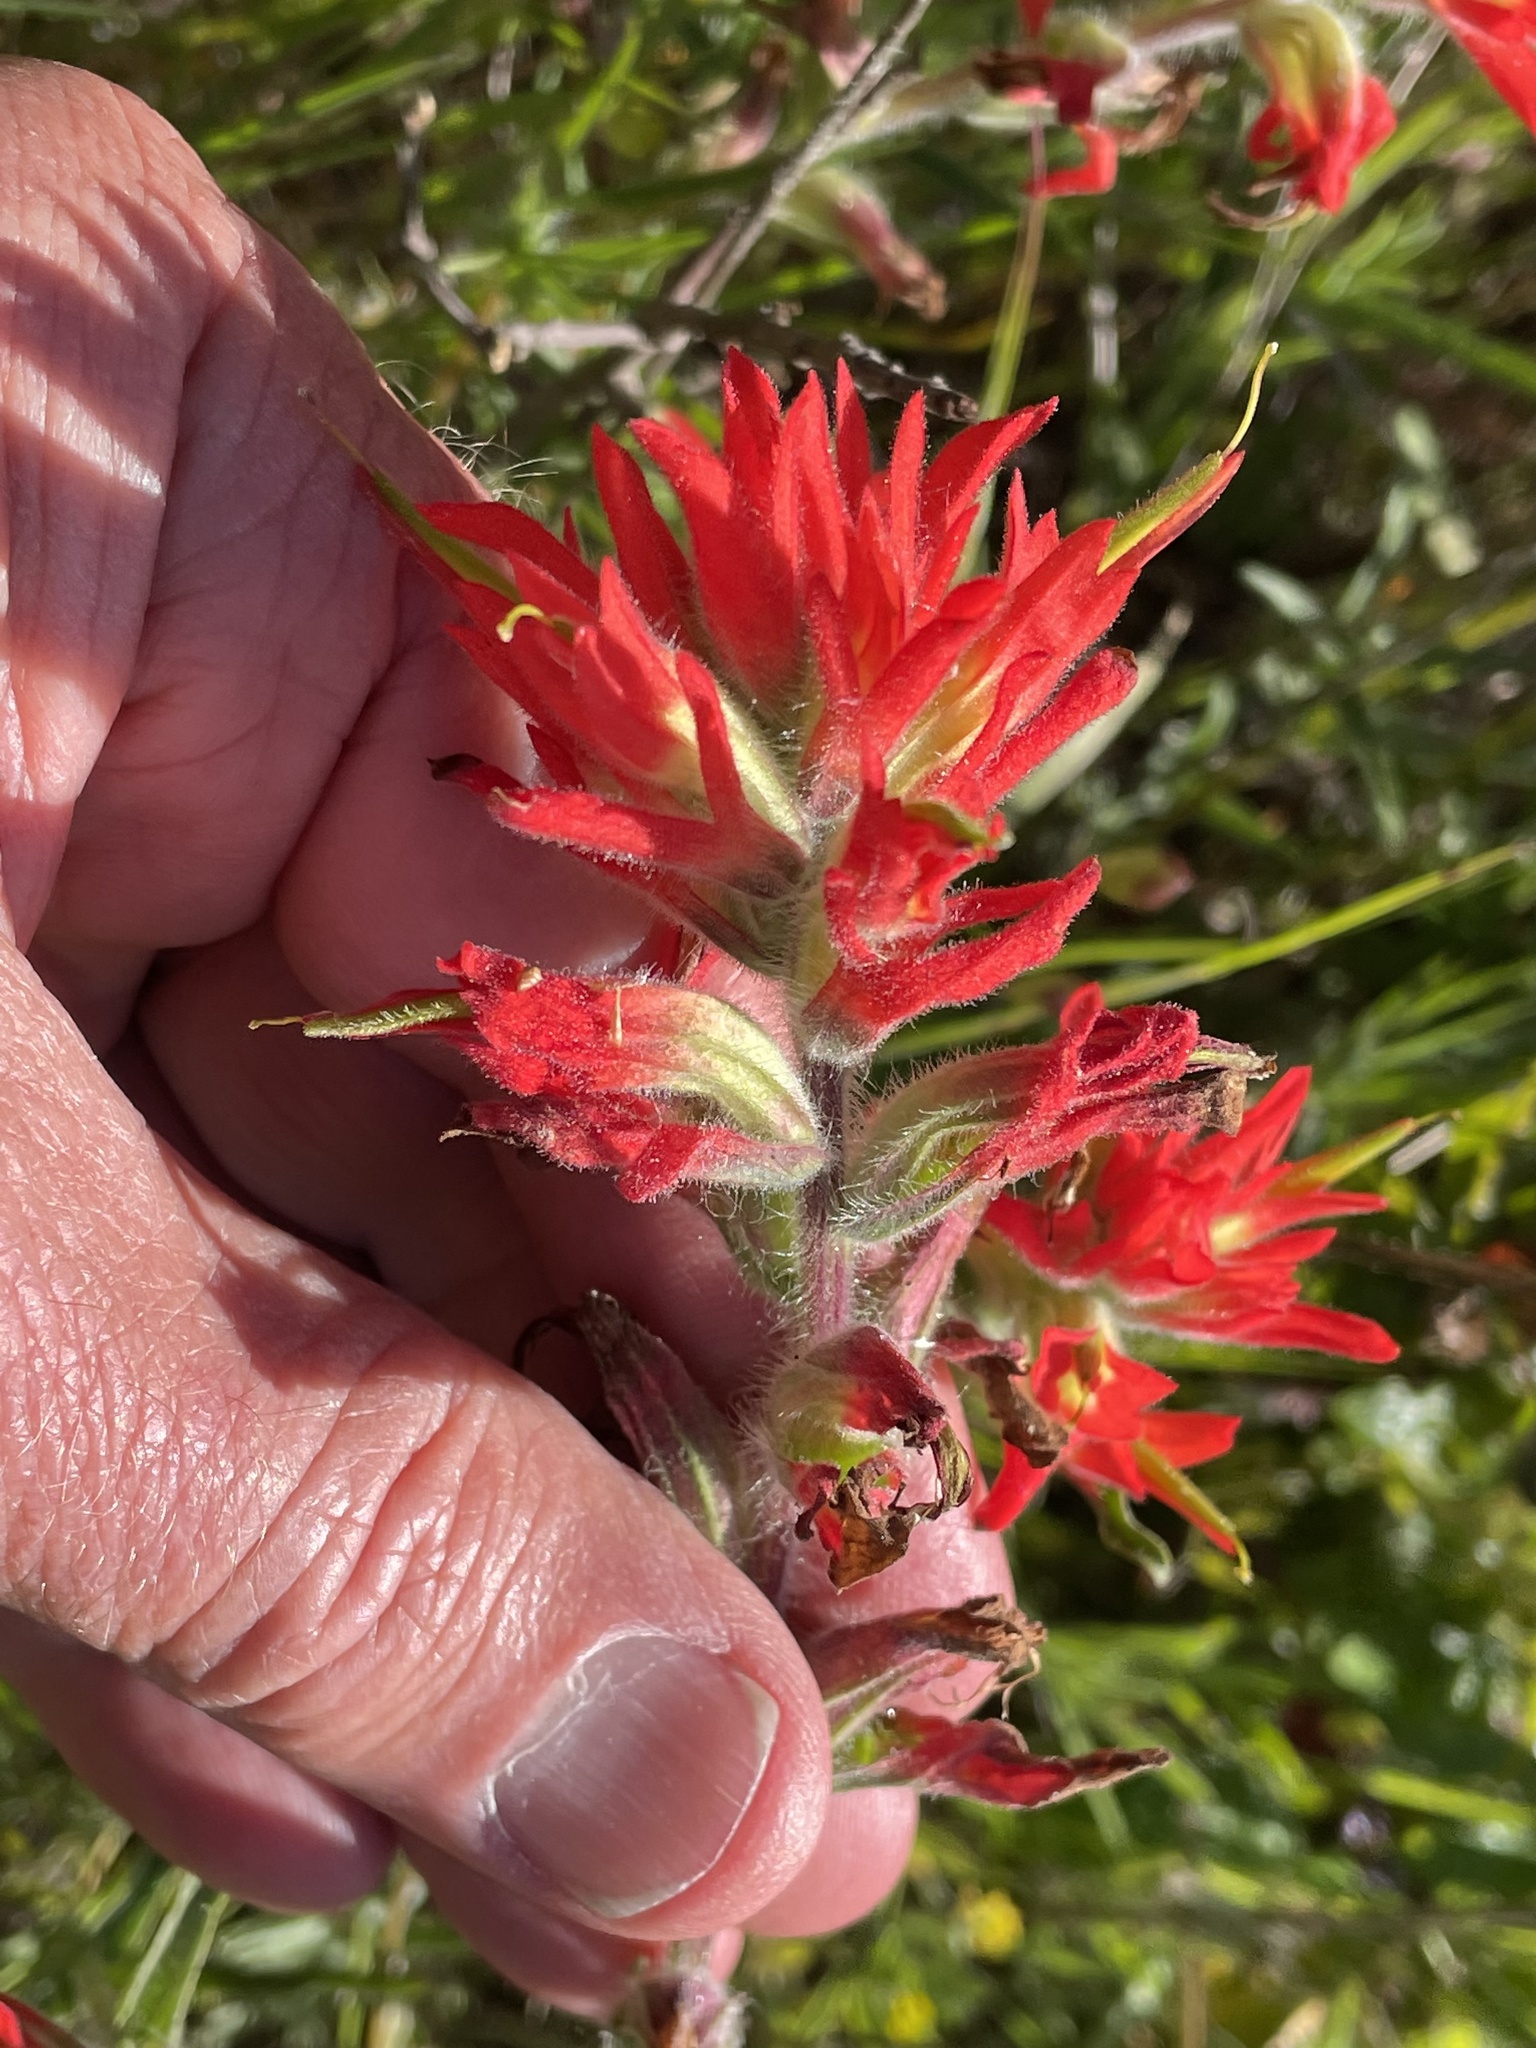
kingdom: Plantae
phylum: Tracheophyta
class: Magnoliopsida
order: Lamiales
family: Orobanchaceae
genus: Castilleja
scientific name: Castilleja affinis
